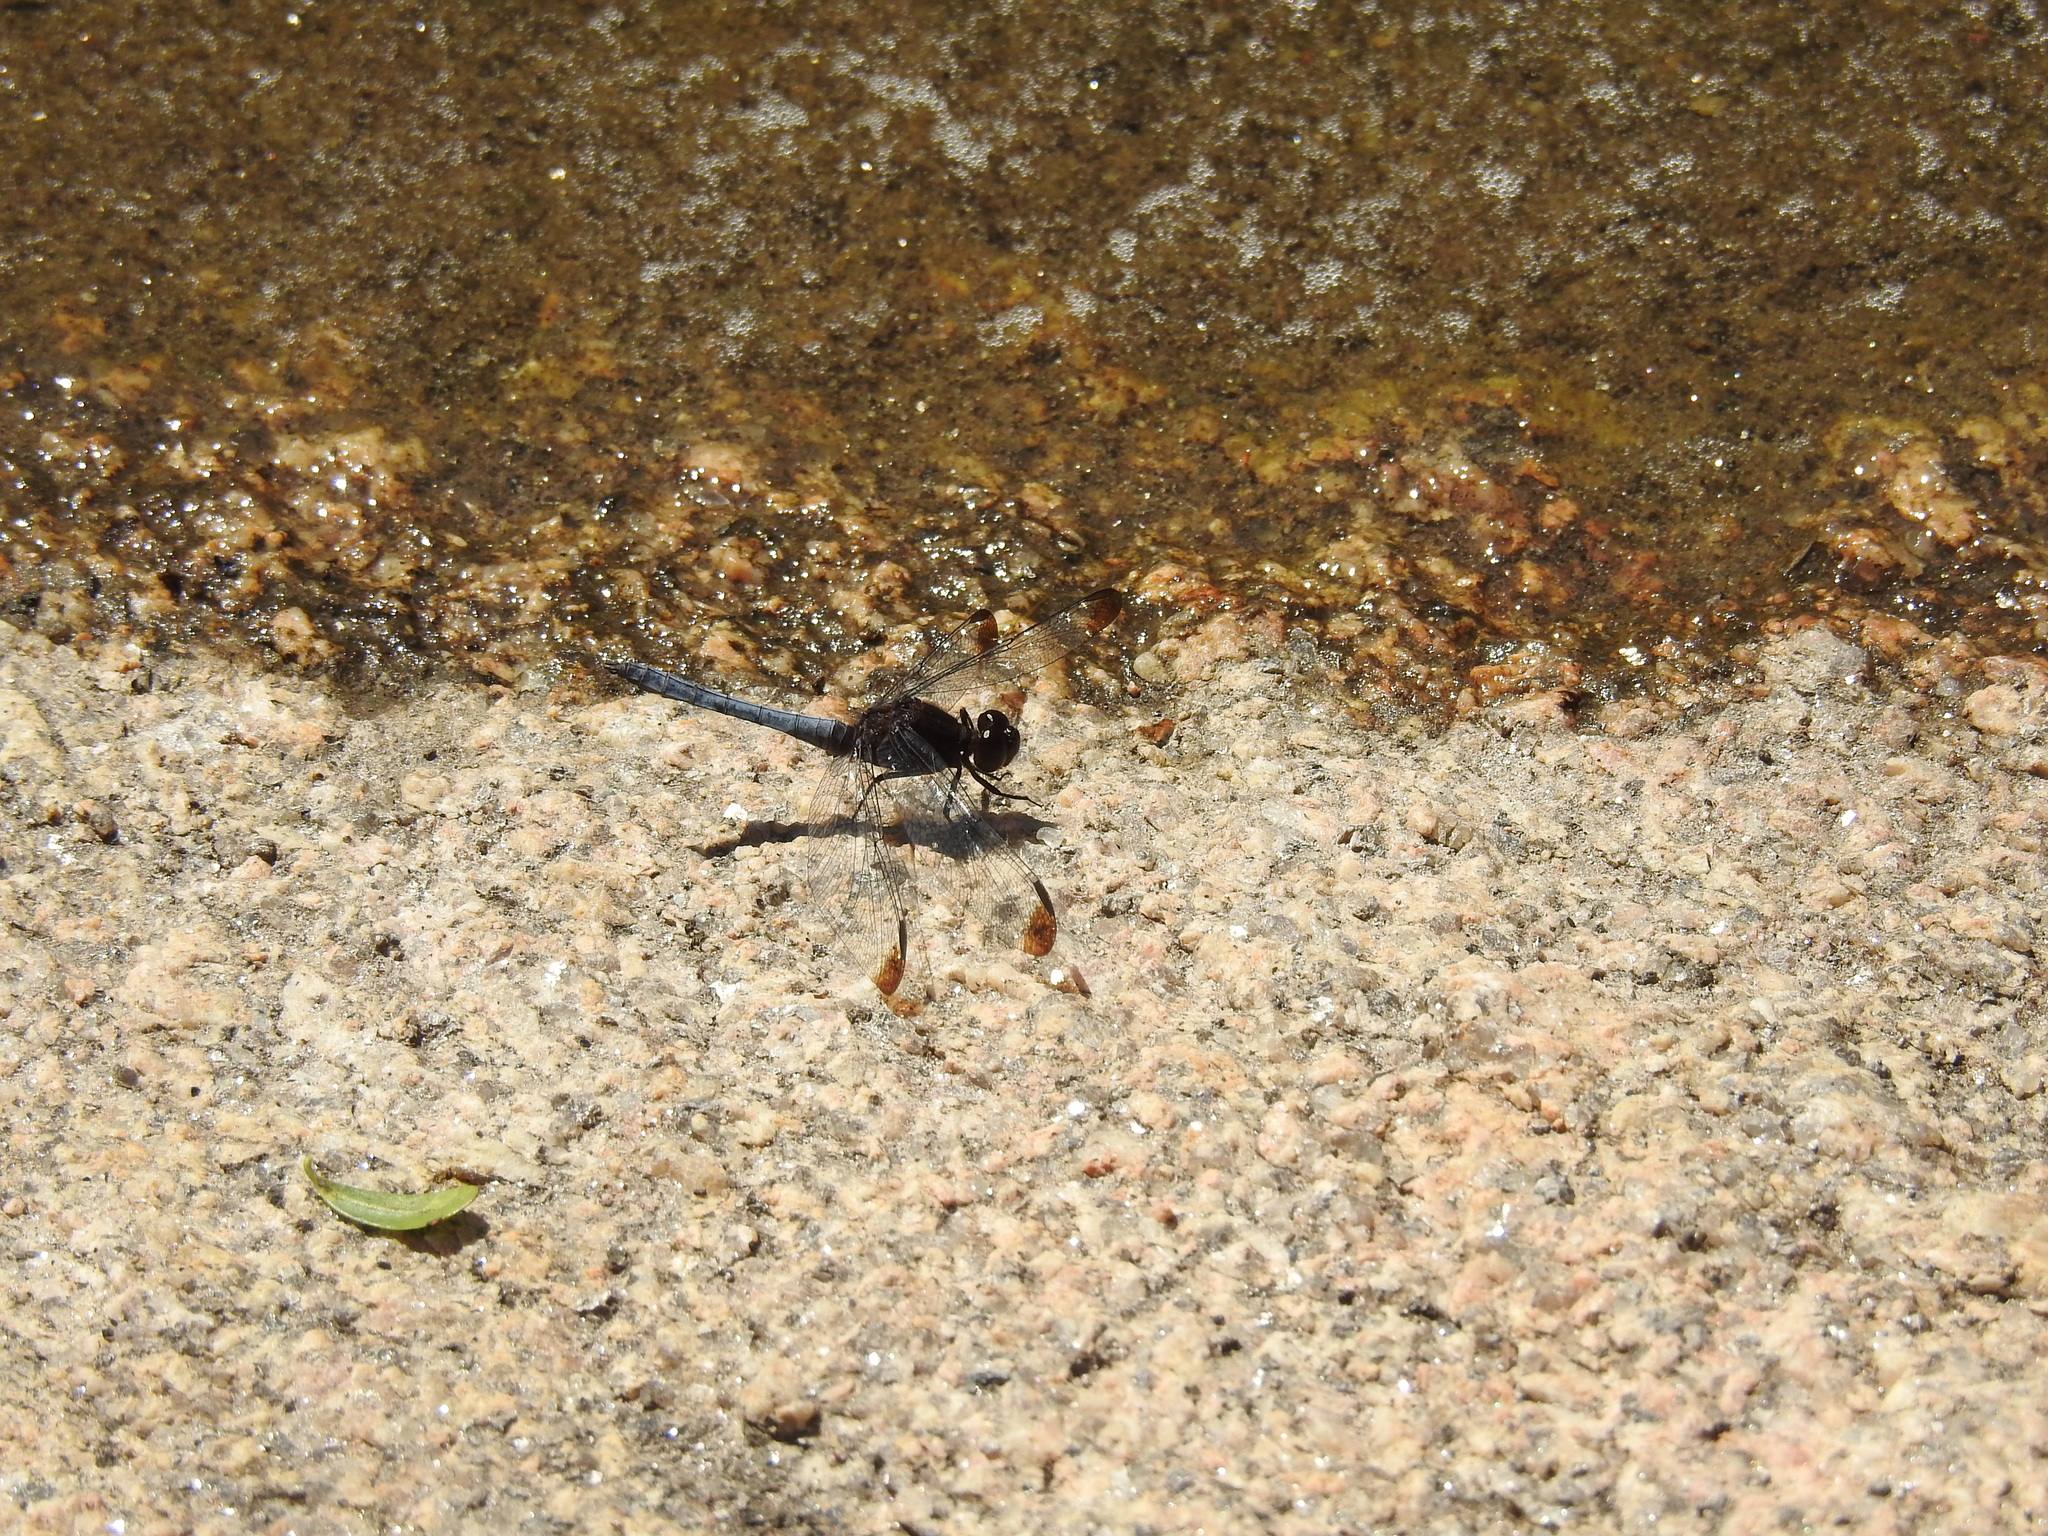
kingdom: Animalia
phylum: Arthropoda
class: Insecta
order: Odonata
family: Libellulidae
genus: Erythrodiplax
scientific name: Erythrodiplax atroterminata
